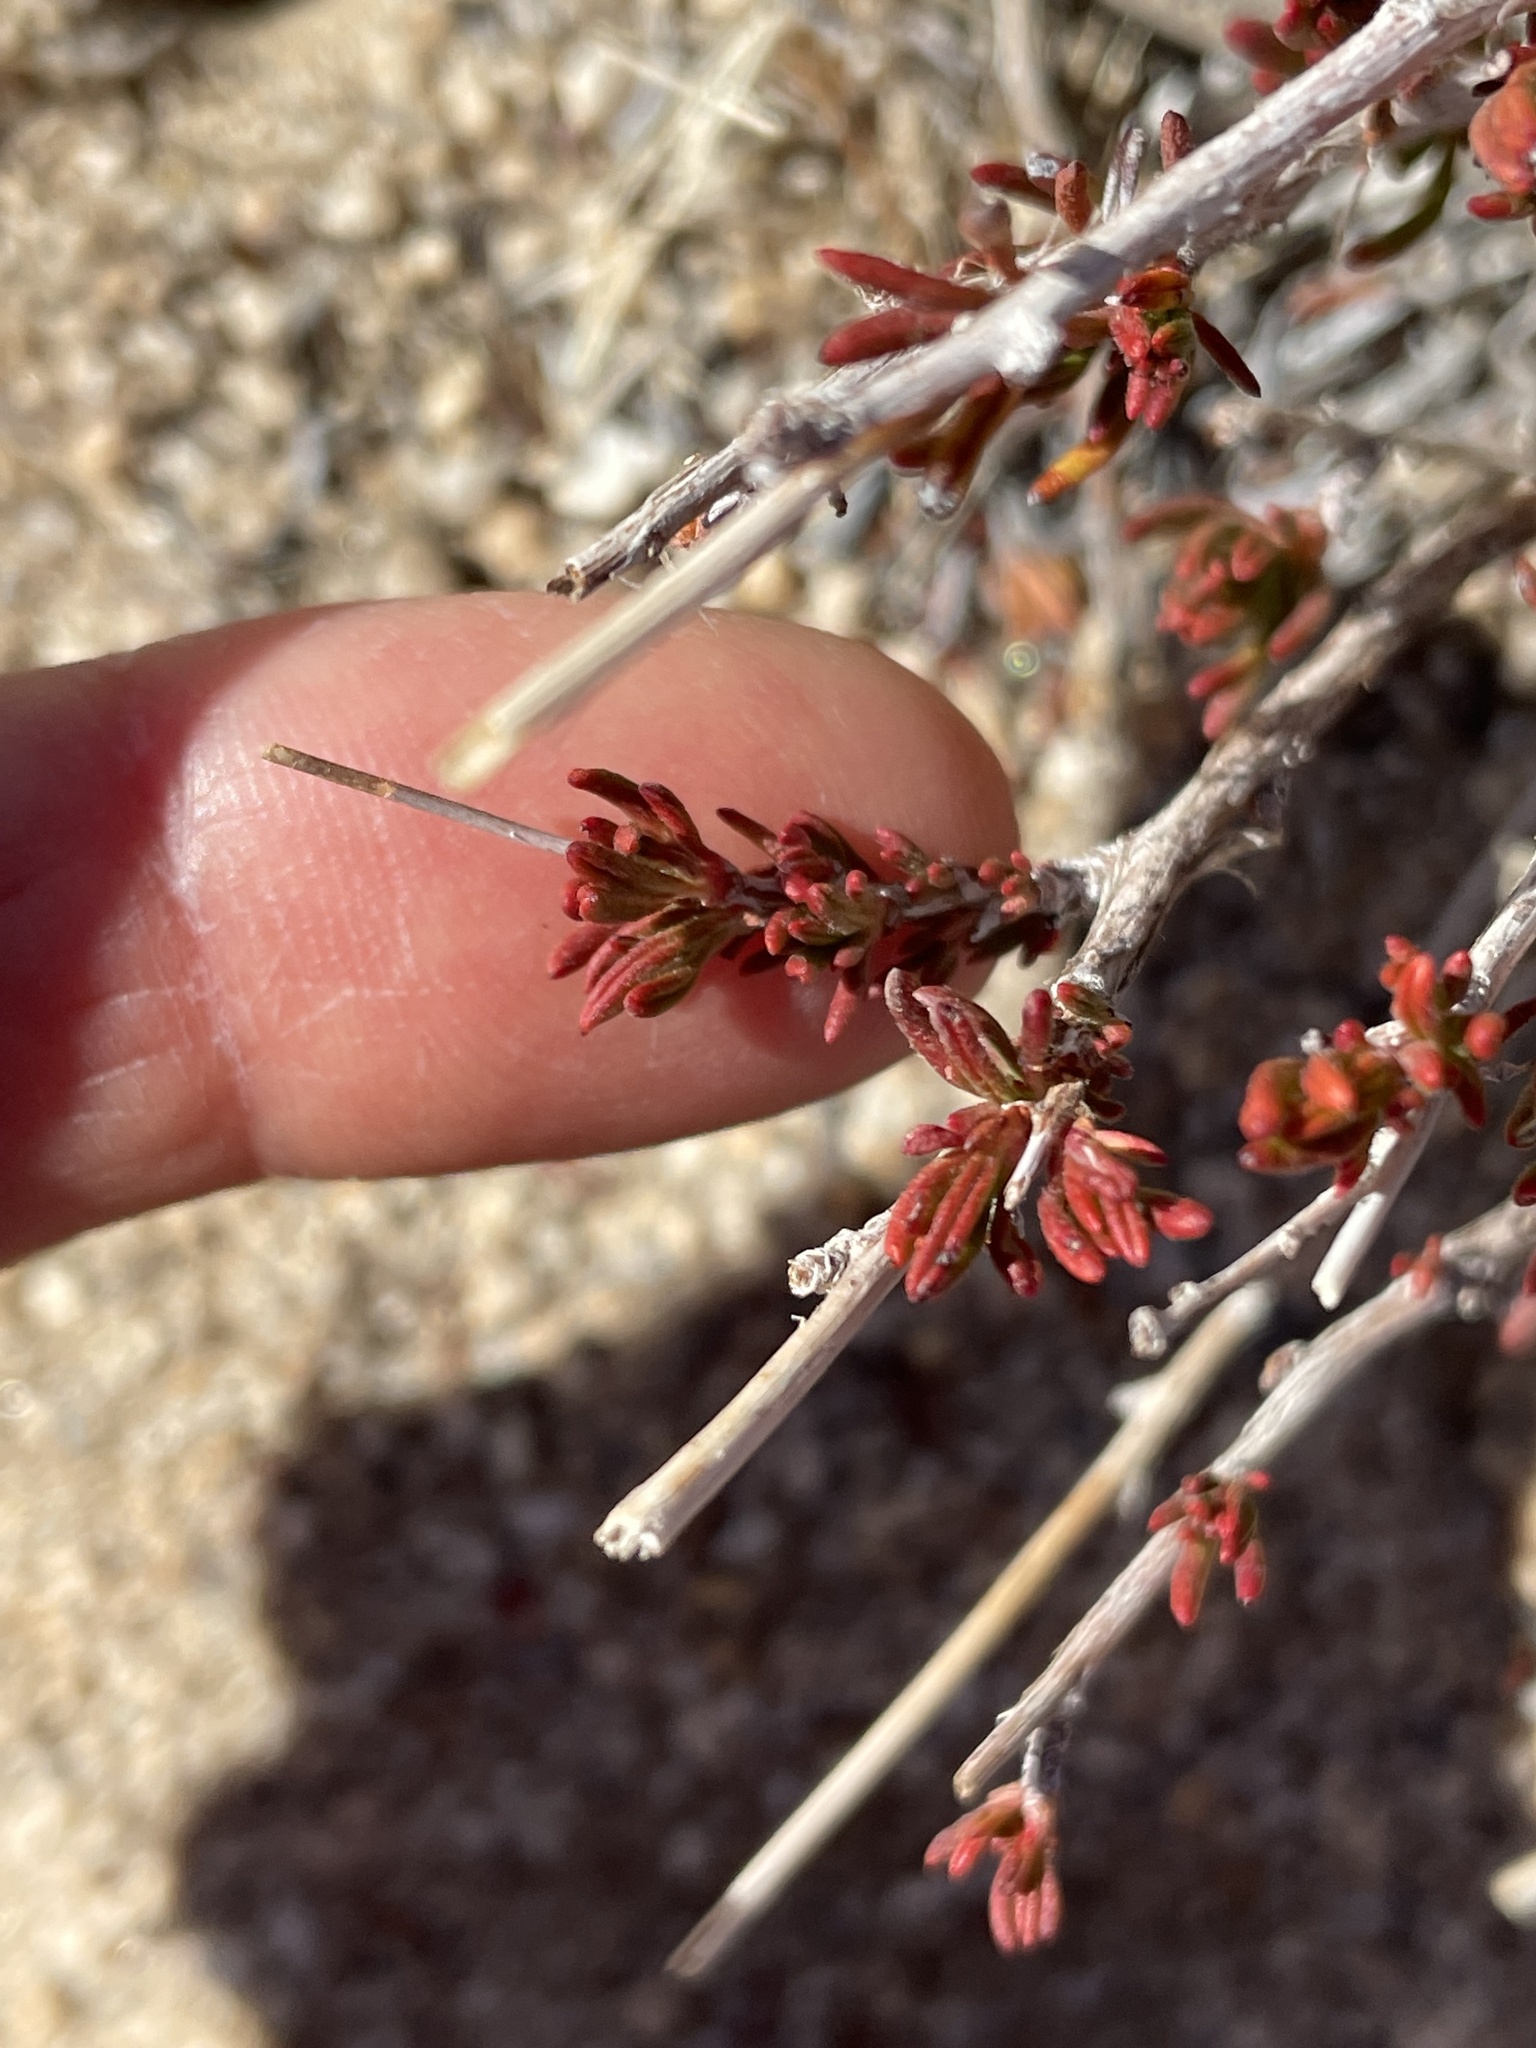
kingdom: Plantae
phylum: Tracheophyta
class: Magnoliopsida
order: Caryophyllales
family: Polygonaceae
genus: Eriogonum
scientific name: Eriogonum fasciculatum
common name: California wild buckwheat
